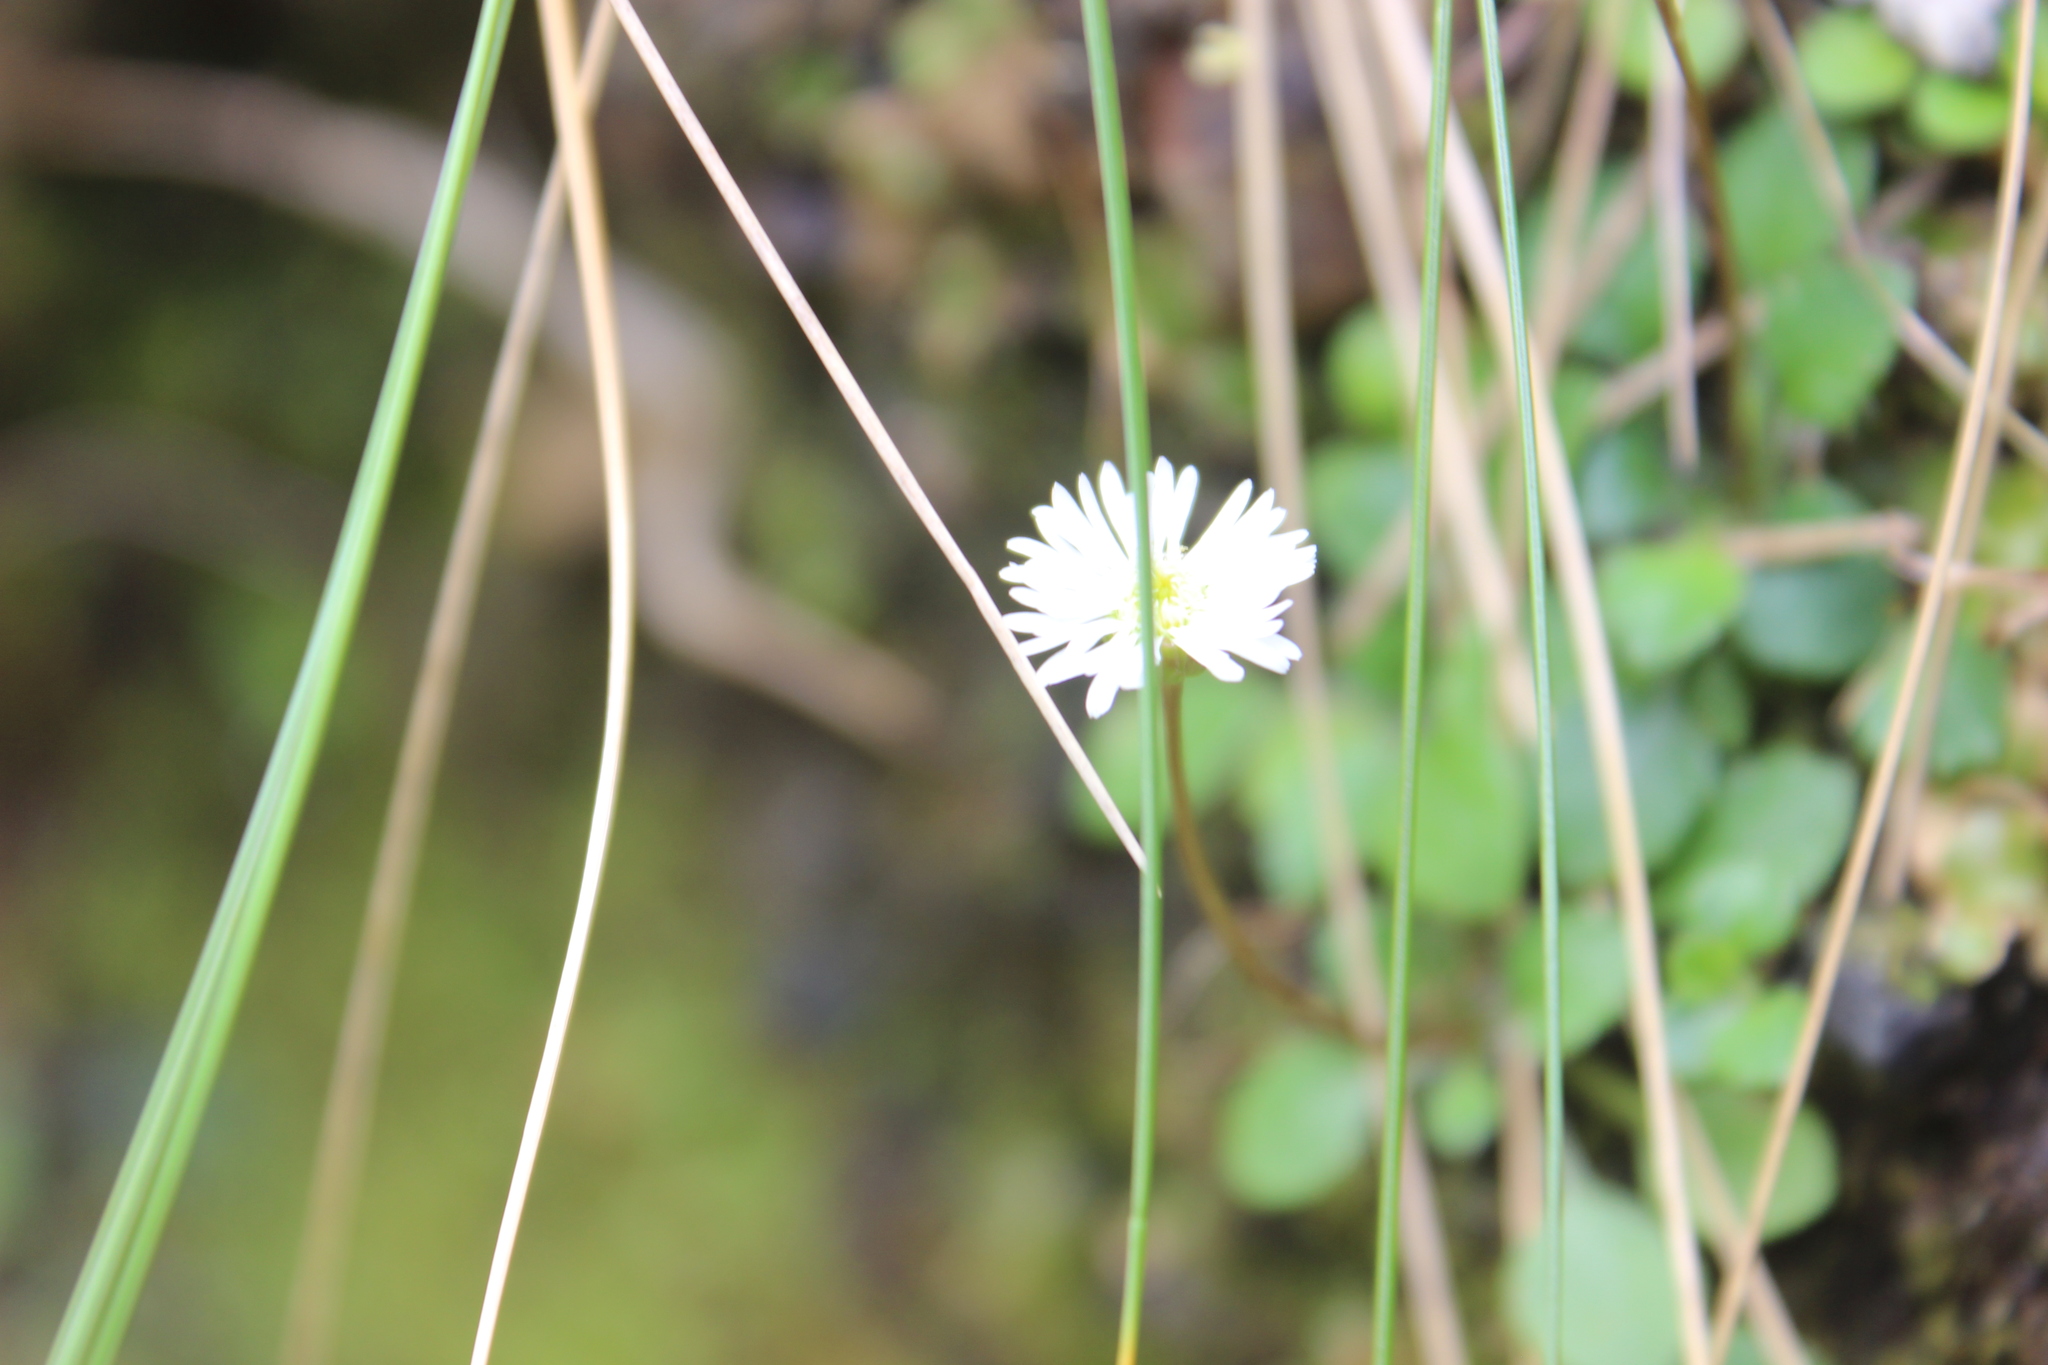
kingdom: Plantae
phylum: Tracheophyta
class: Magnoliopsida
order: Asterales
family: Asteraceae
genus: Lagenophora
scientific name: Lagenophora pumila
